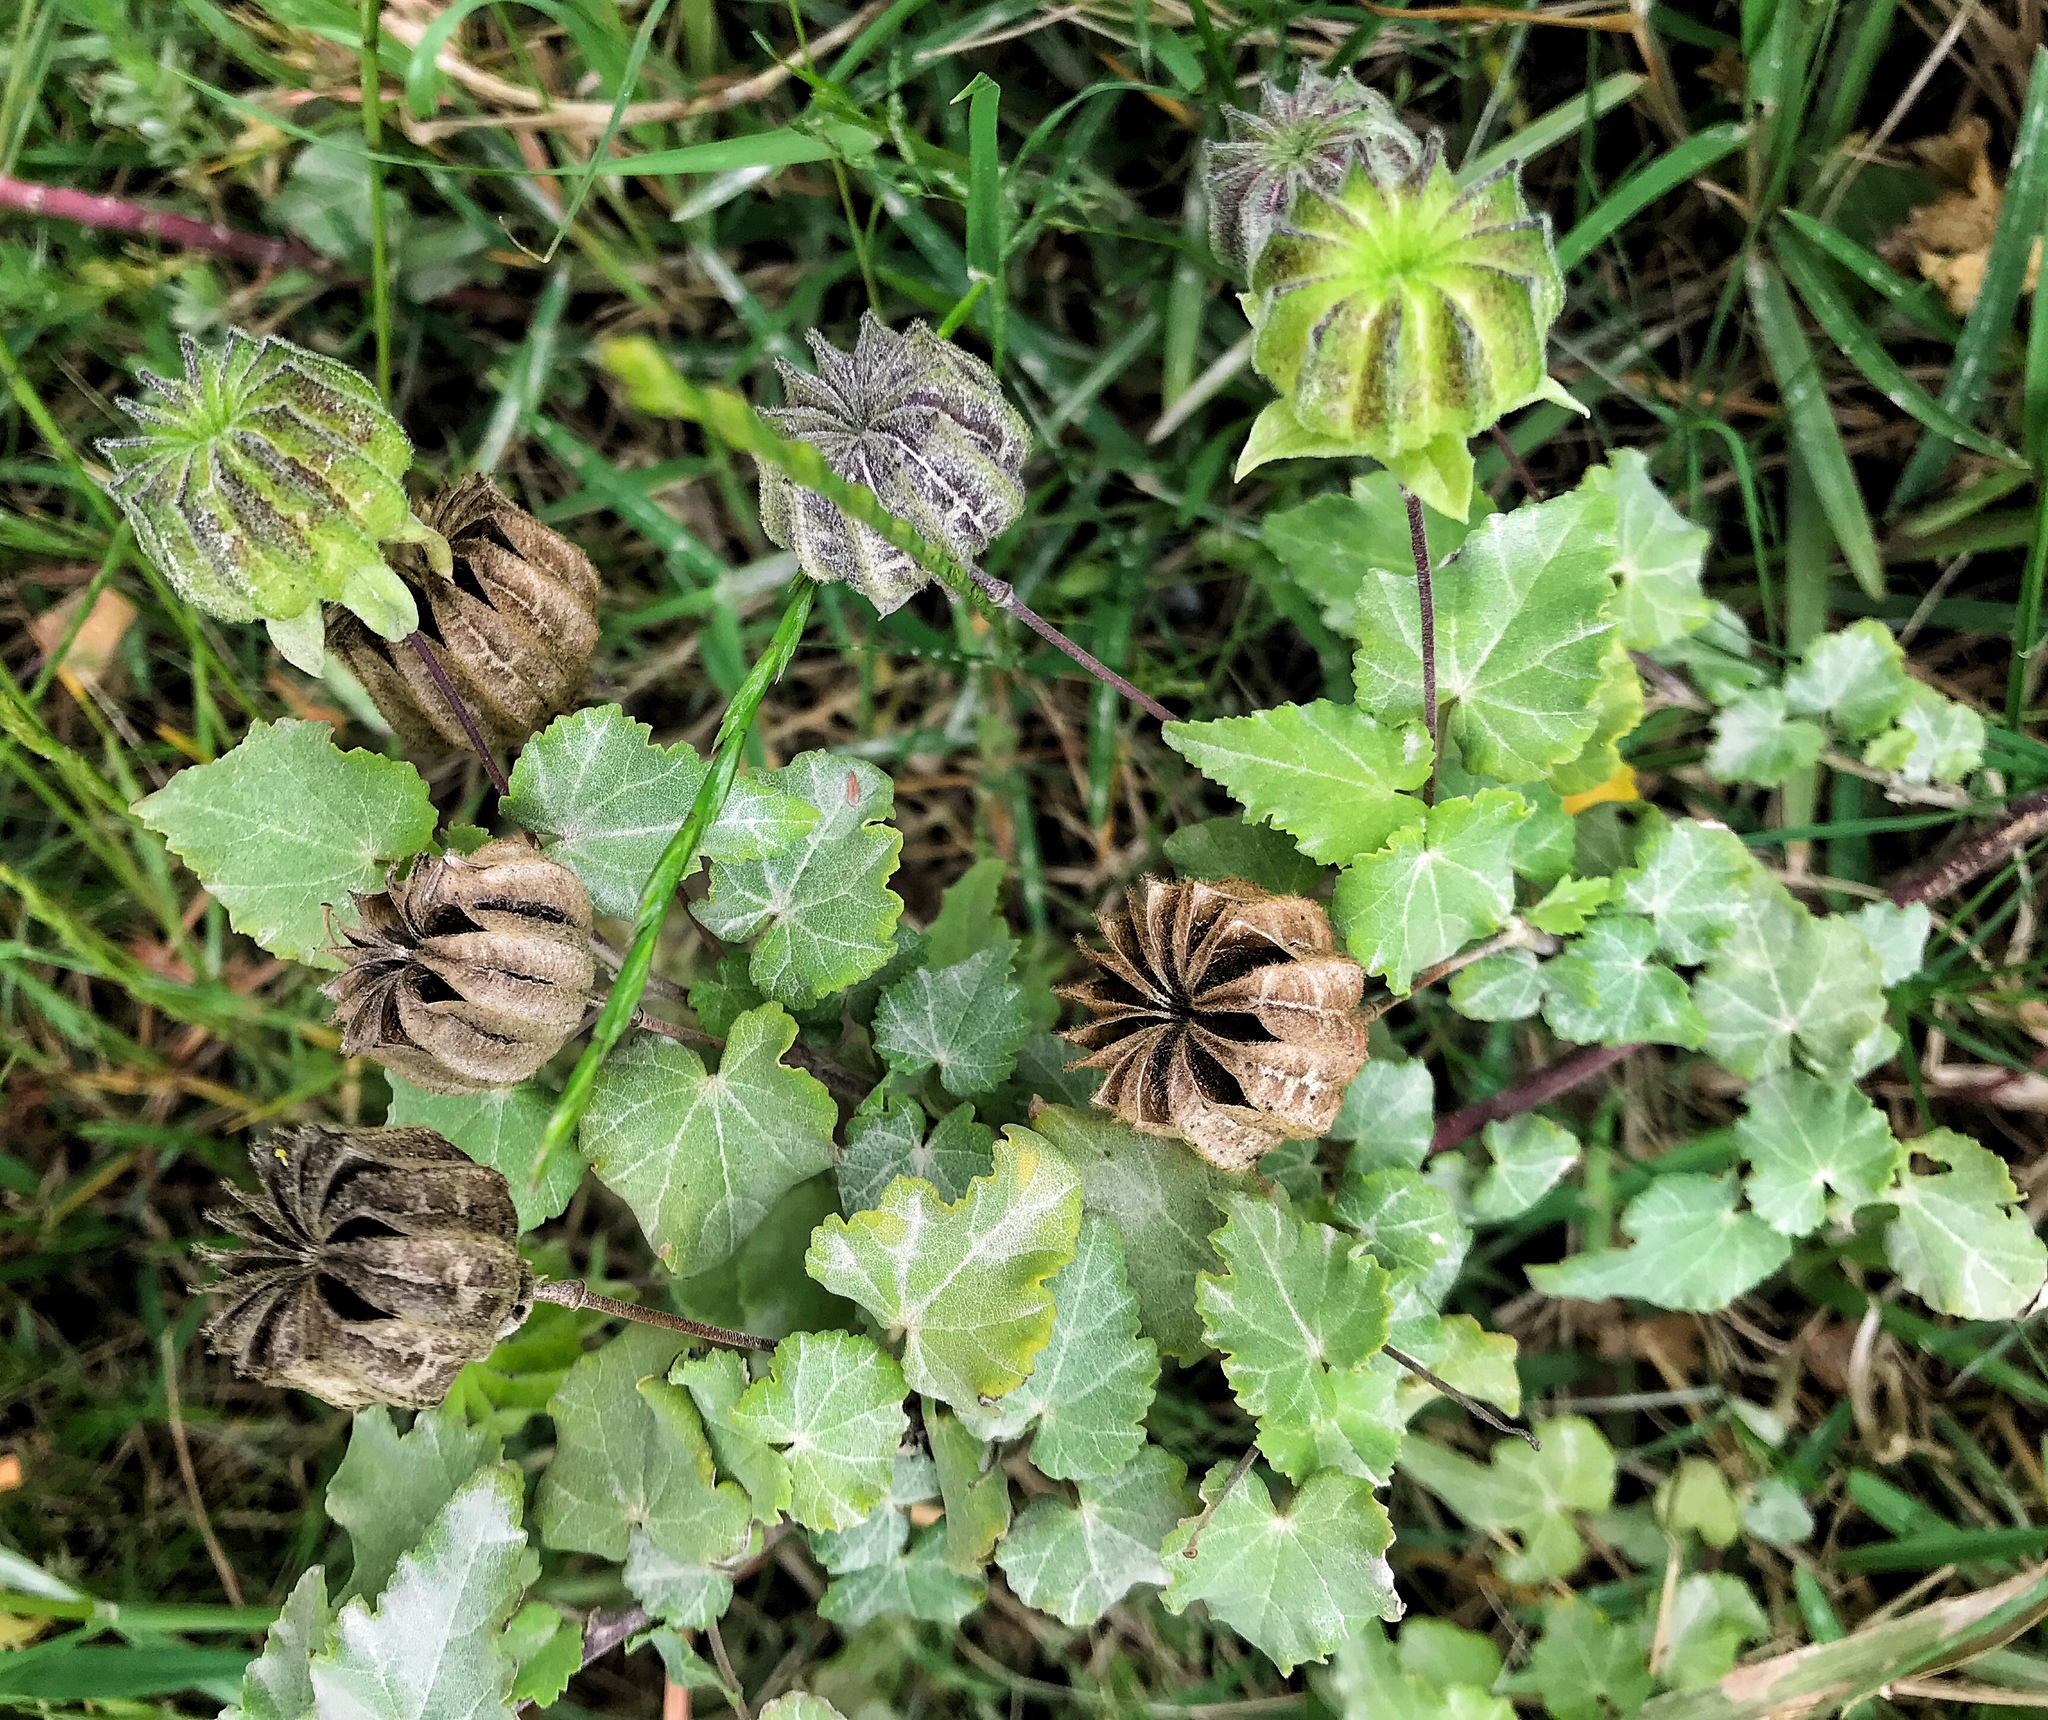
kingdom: Plantae
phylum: Tracheophyta
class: Magnoliopsida
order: Malvales
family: Malvaceae
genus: Abutilon
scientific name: Abutilon sonneratianum
